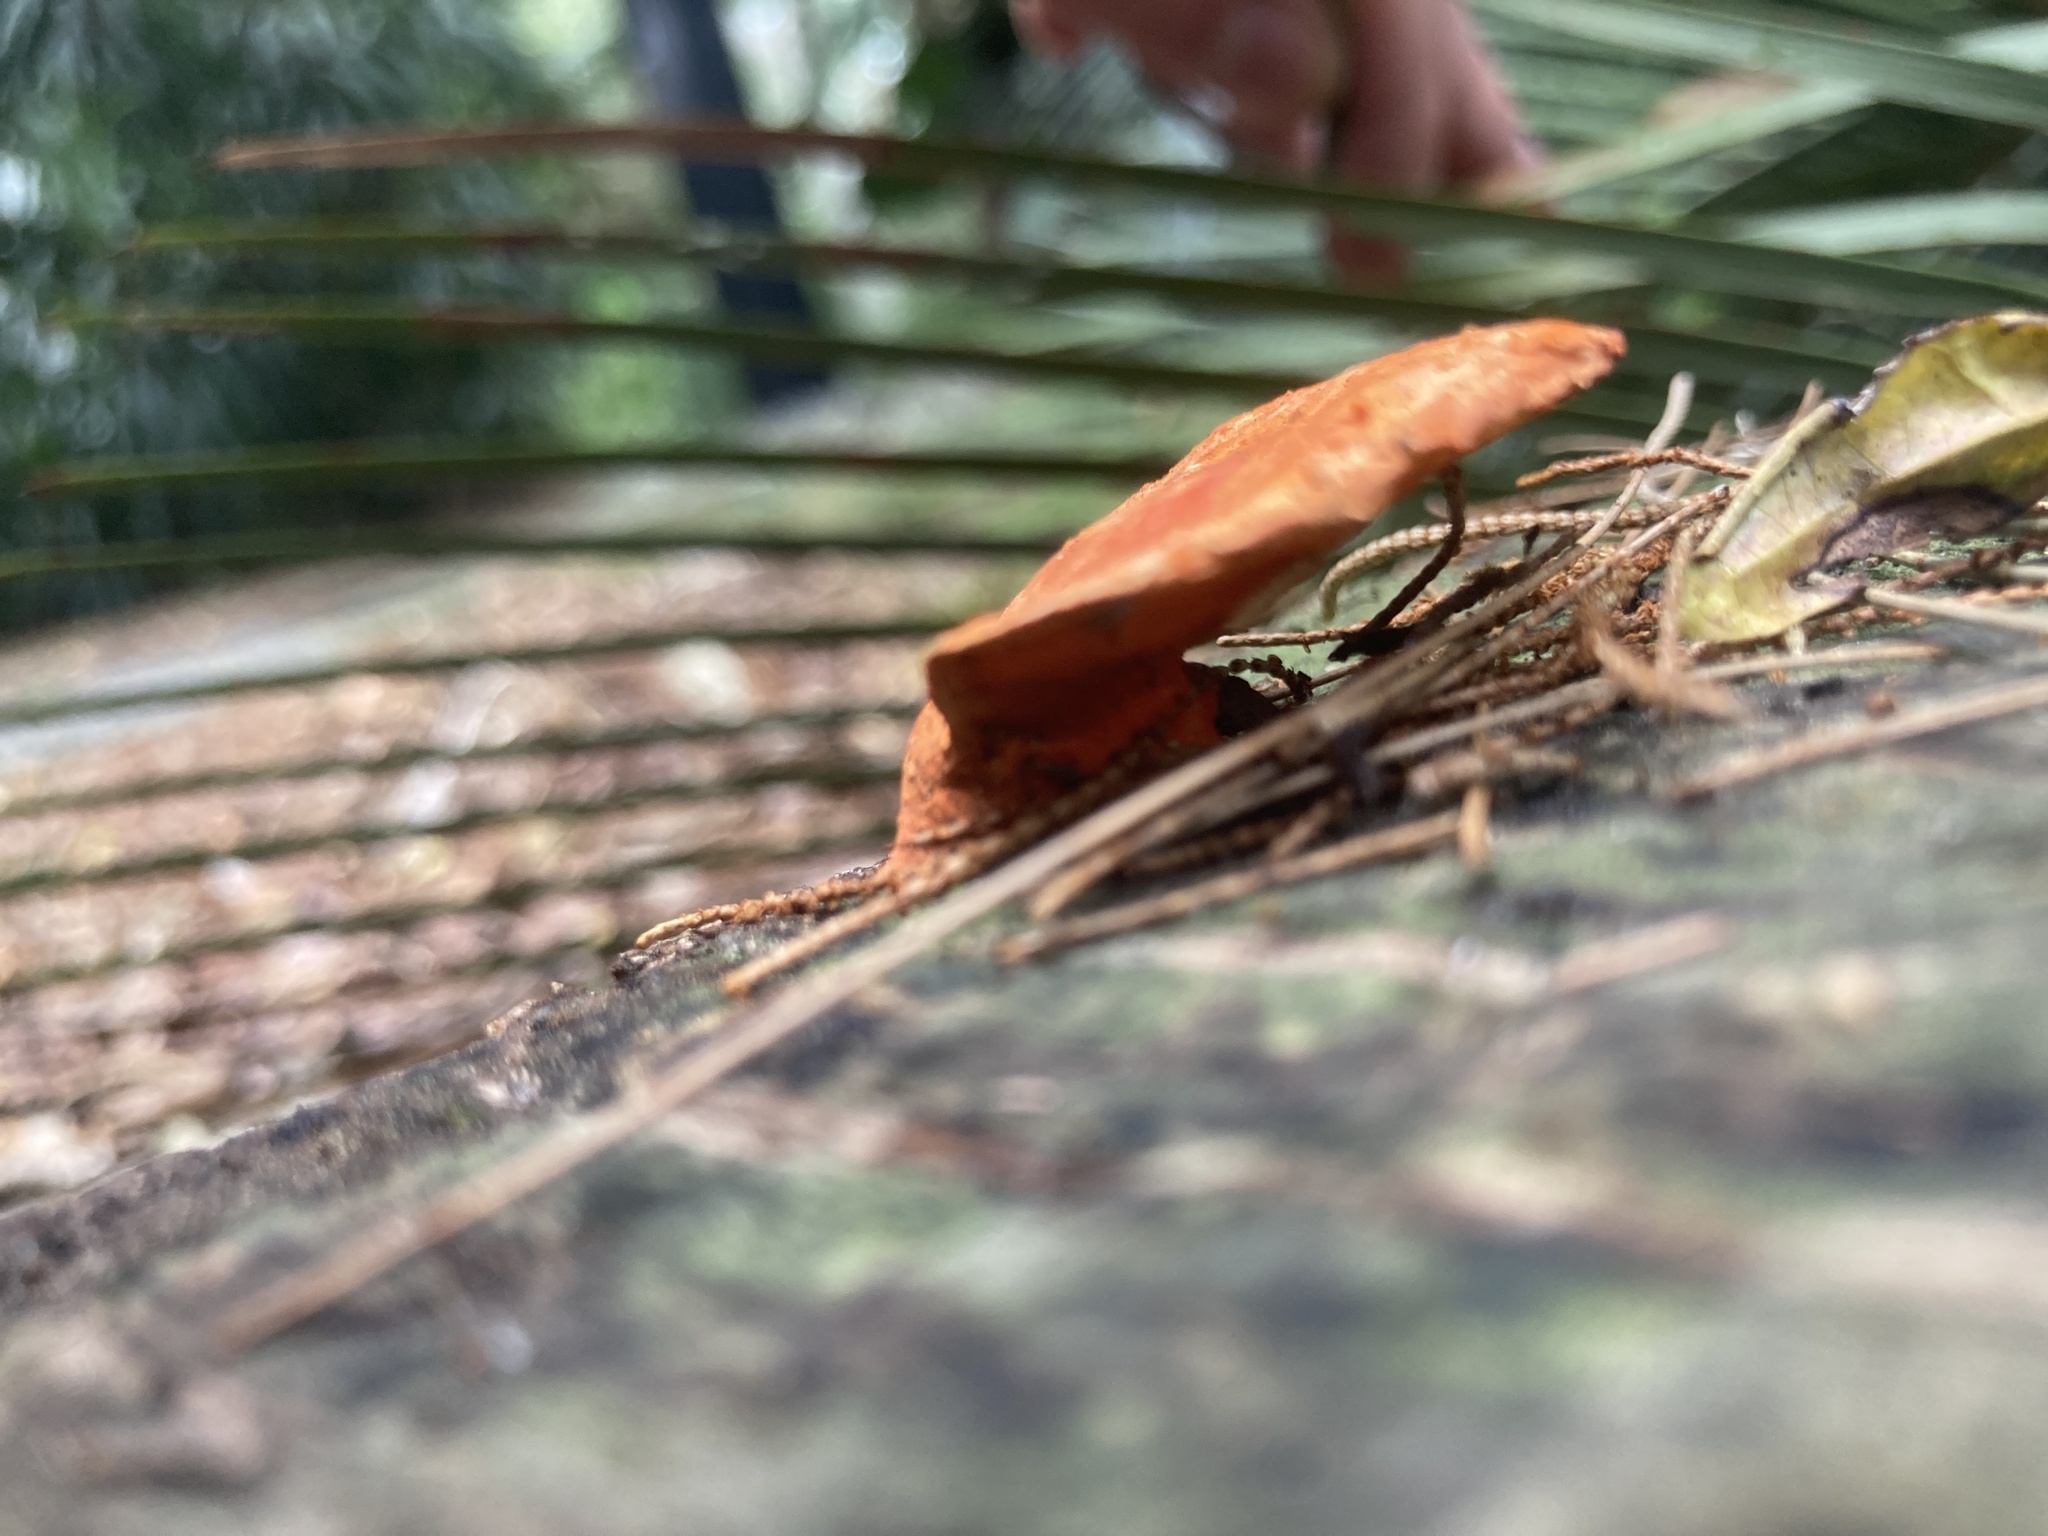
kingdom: Fungi
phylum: Basidiomycota
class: Agaricomycetes
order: Polyporales
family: Polyporaceae
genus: Trametes
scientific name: Trametes coccinea
